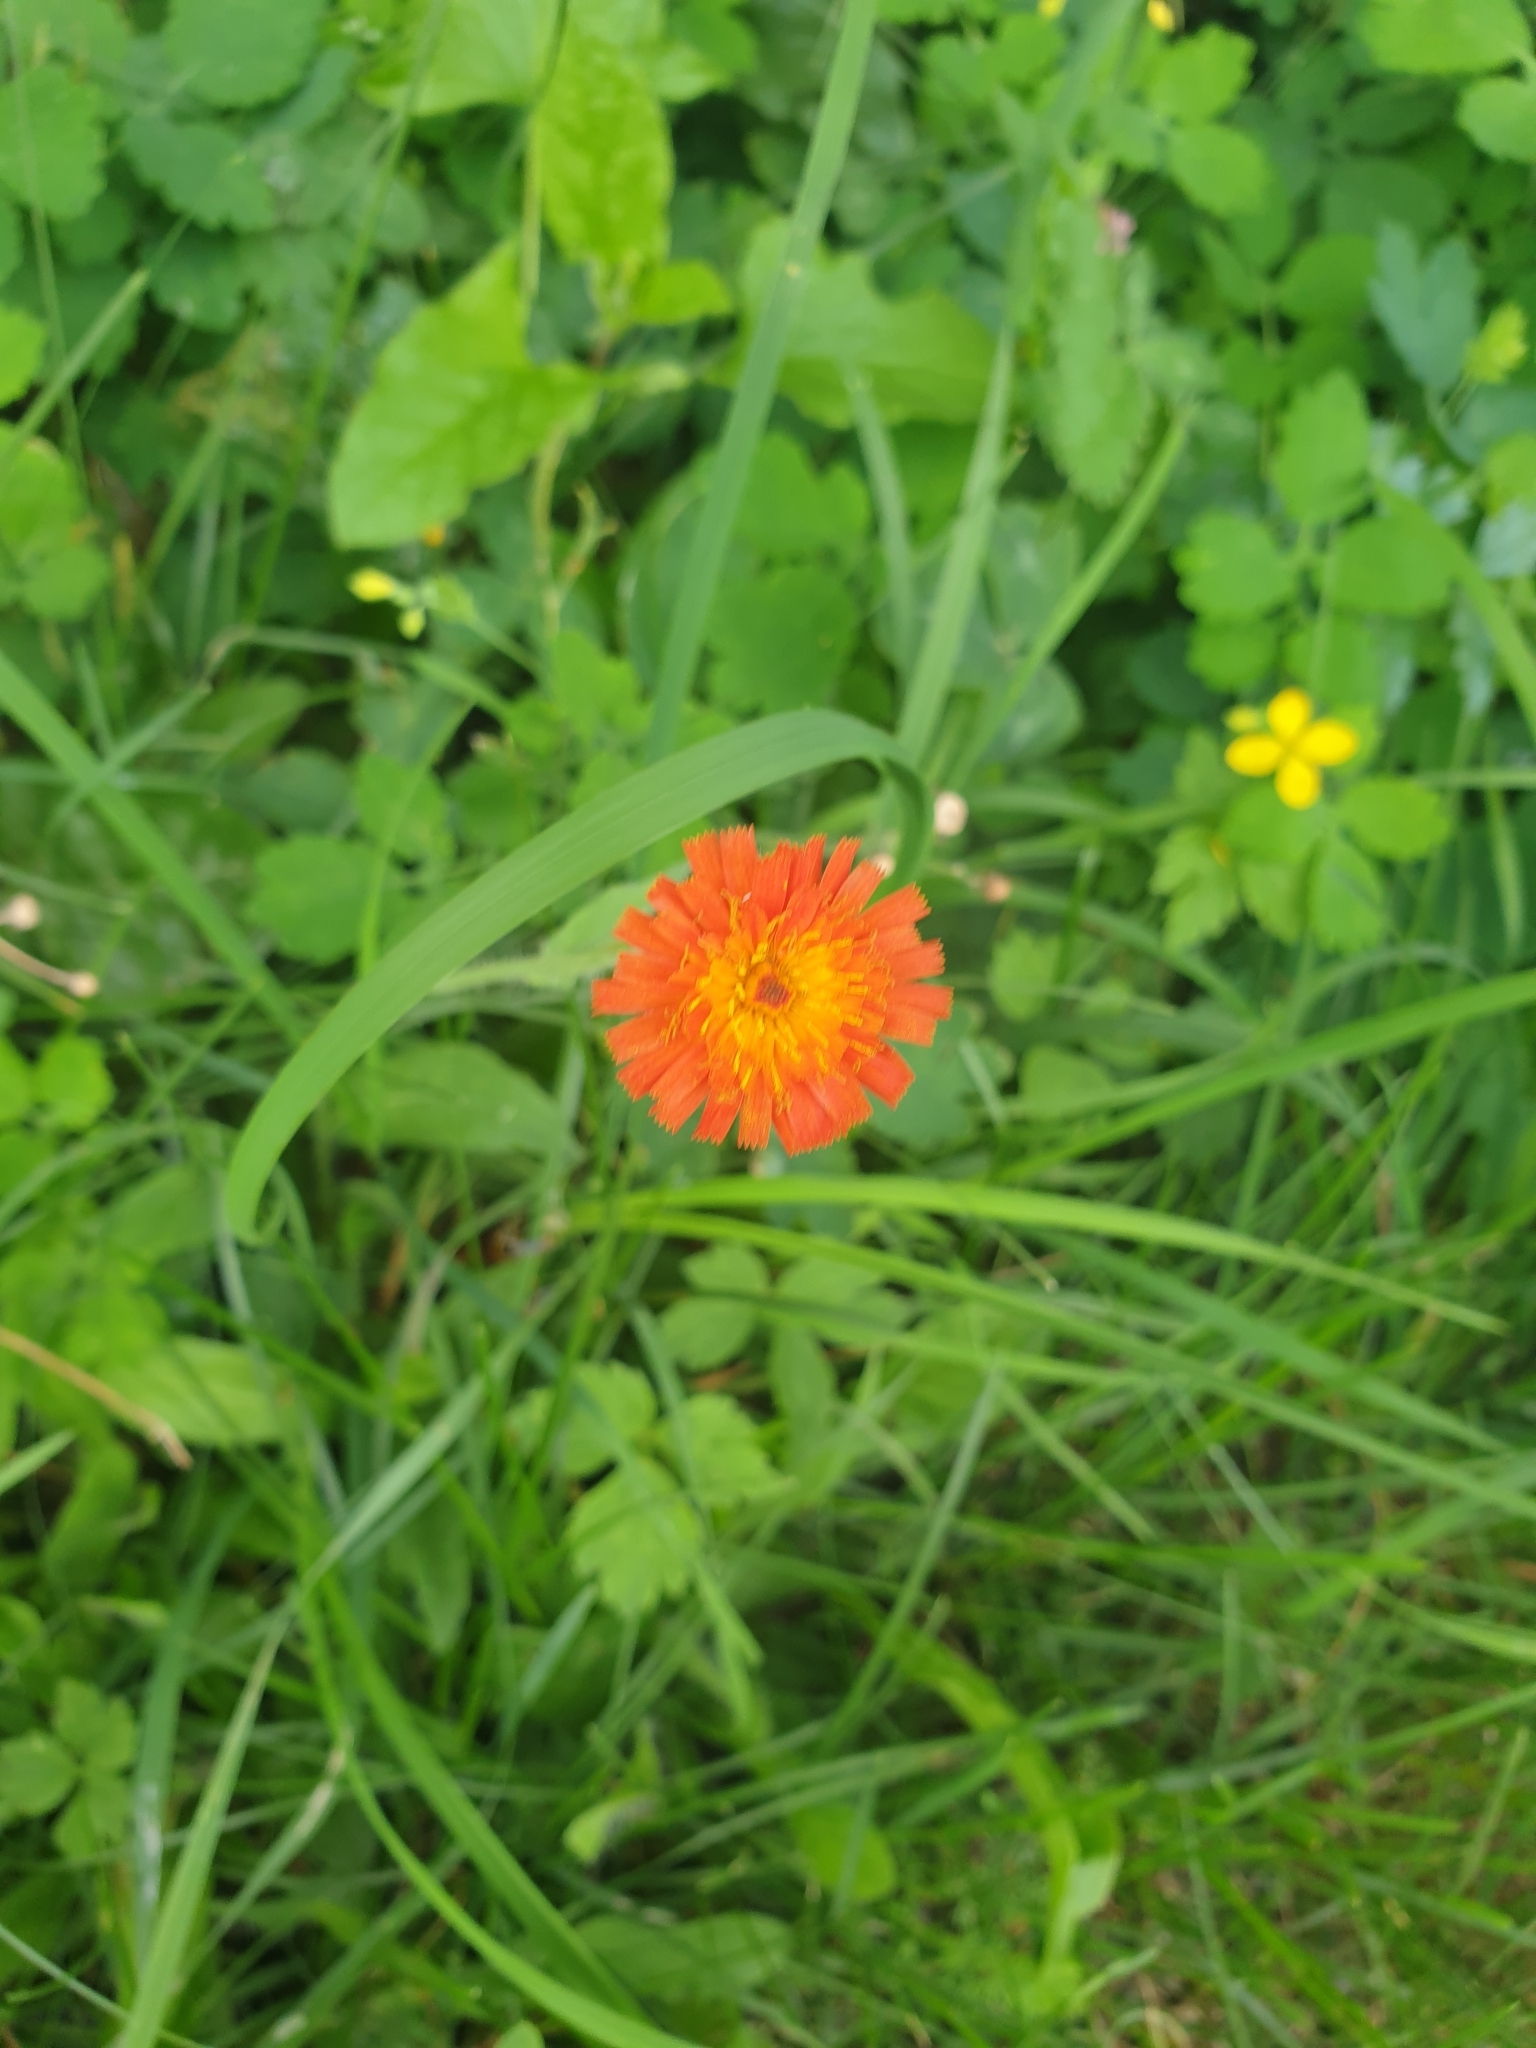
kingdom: Plantae
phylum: Tracheophyta
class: Magnoliopsida
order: Asterales
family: Asteraceae
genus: Pilosella
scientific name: Pilosella aurantiaca
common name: Fox-and-cubs
